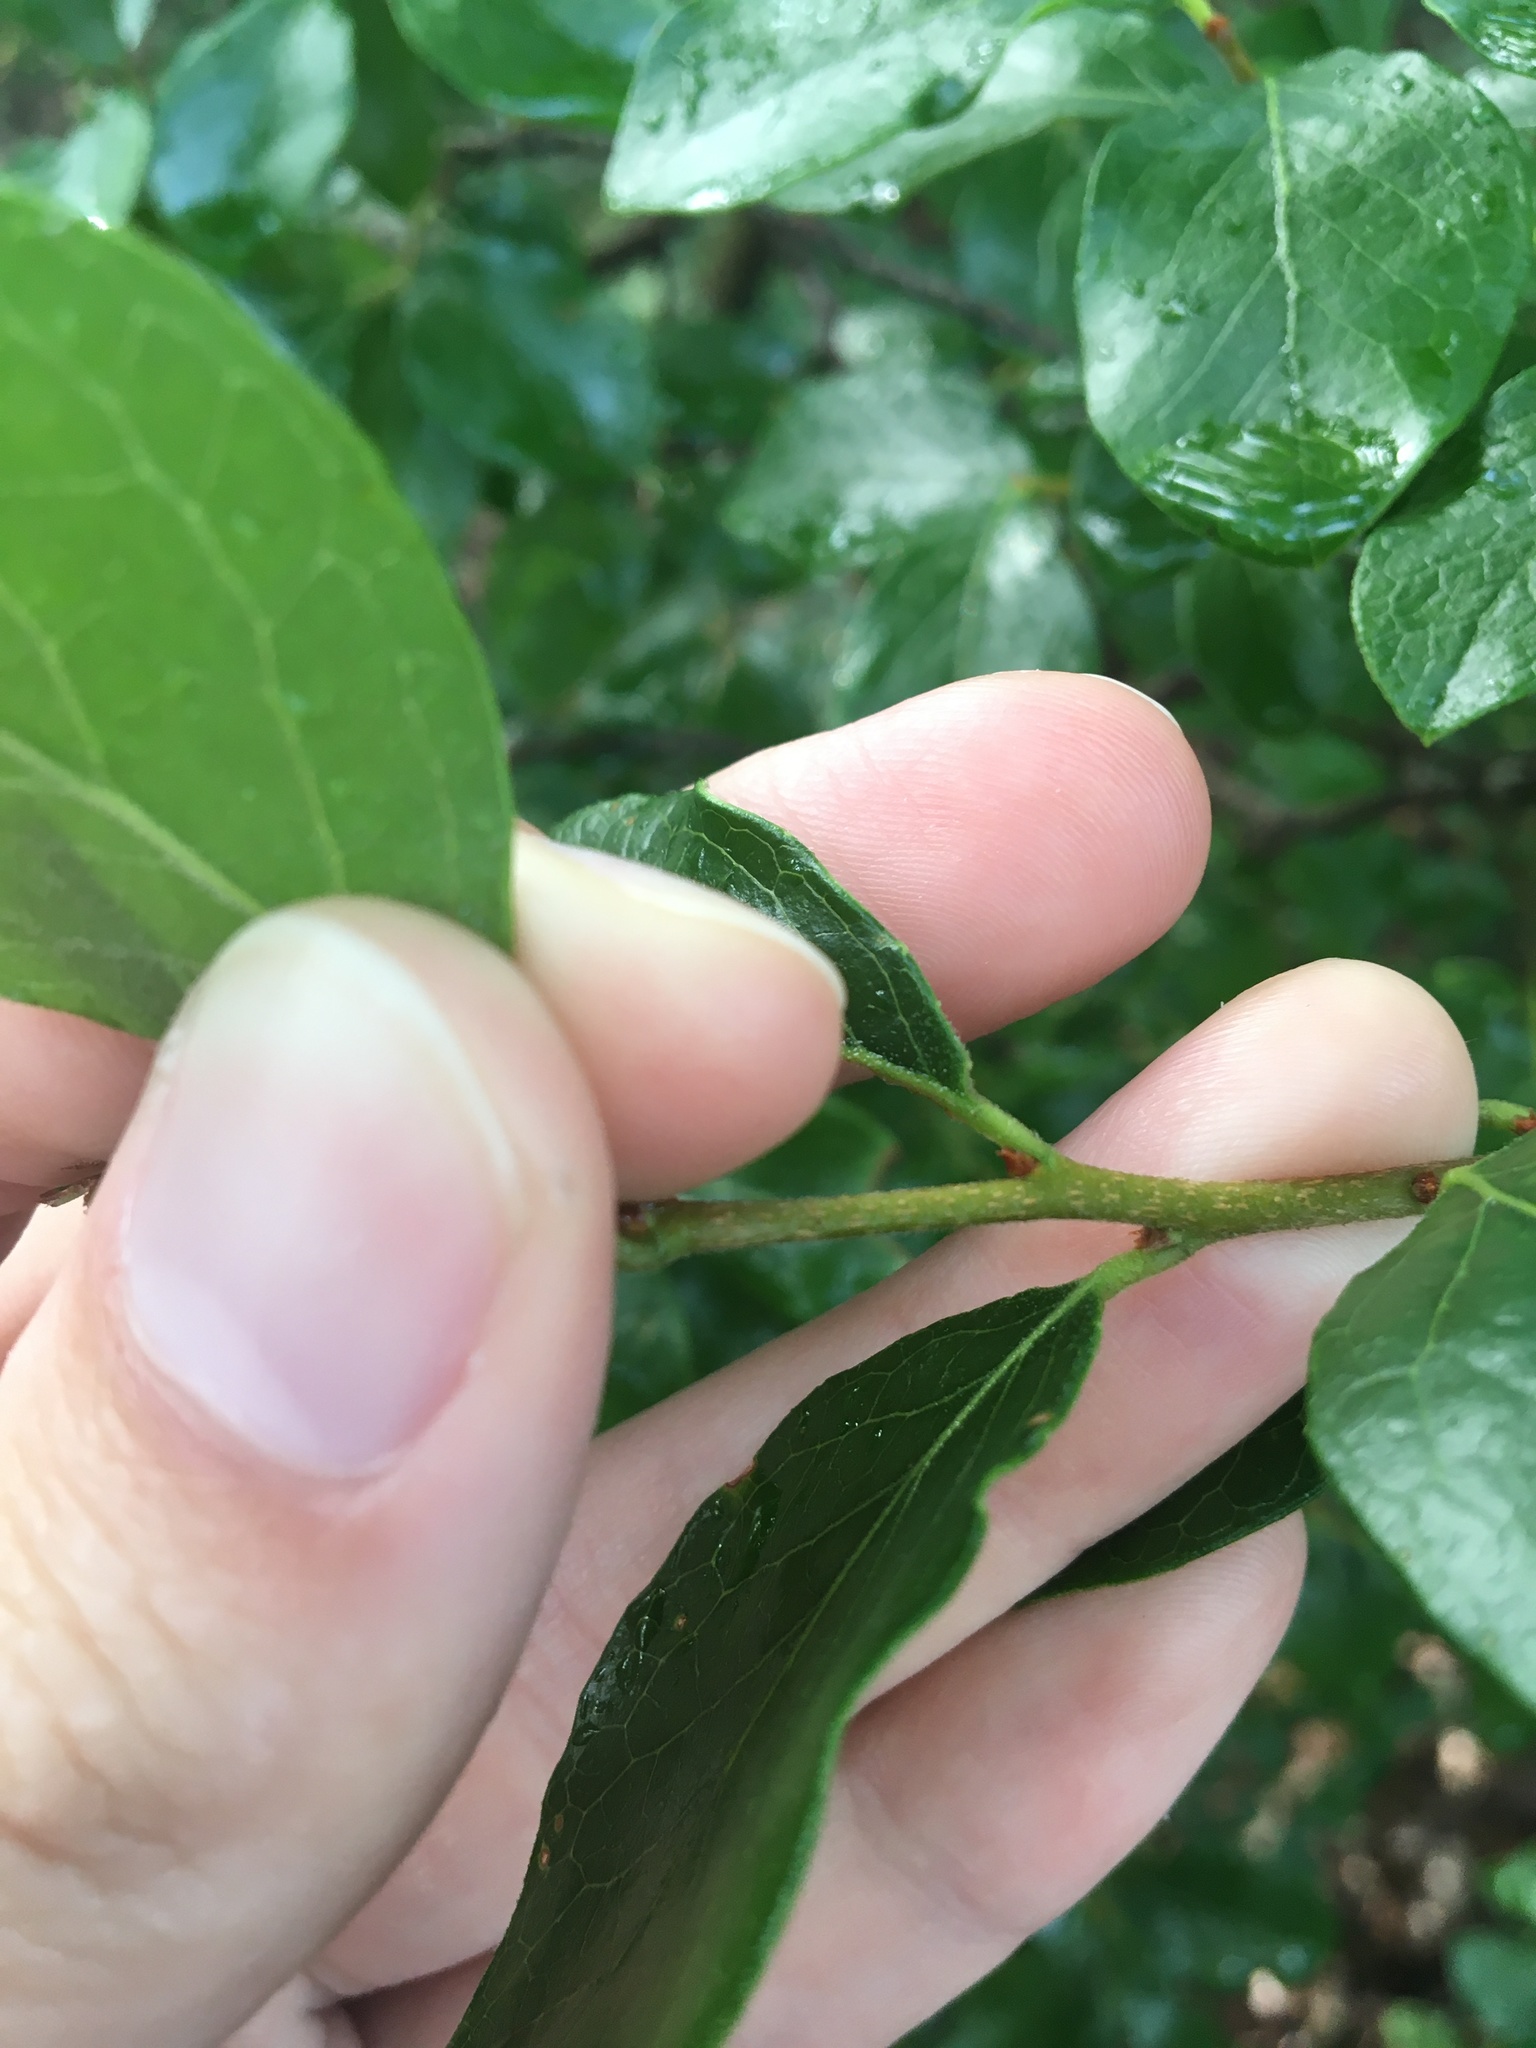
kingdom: Plantae
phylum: Tracheophyta
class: Magnoliopsida
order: Ericales
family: Ericaceae
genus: Vaccinium
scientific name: Vaccinium arboreum
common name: Farkleberry
